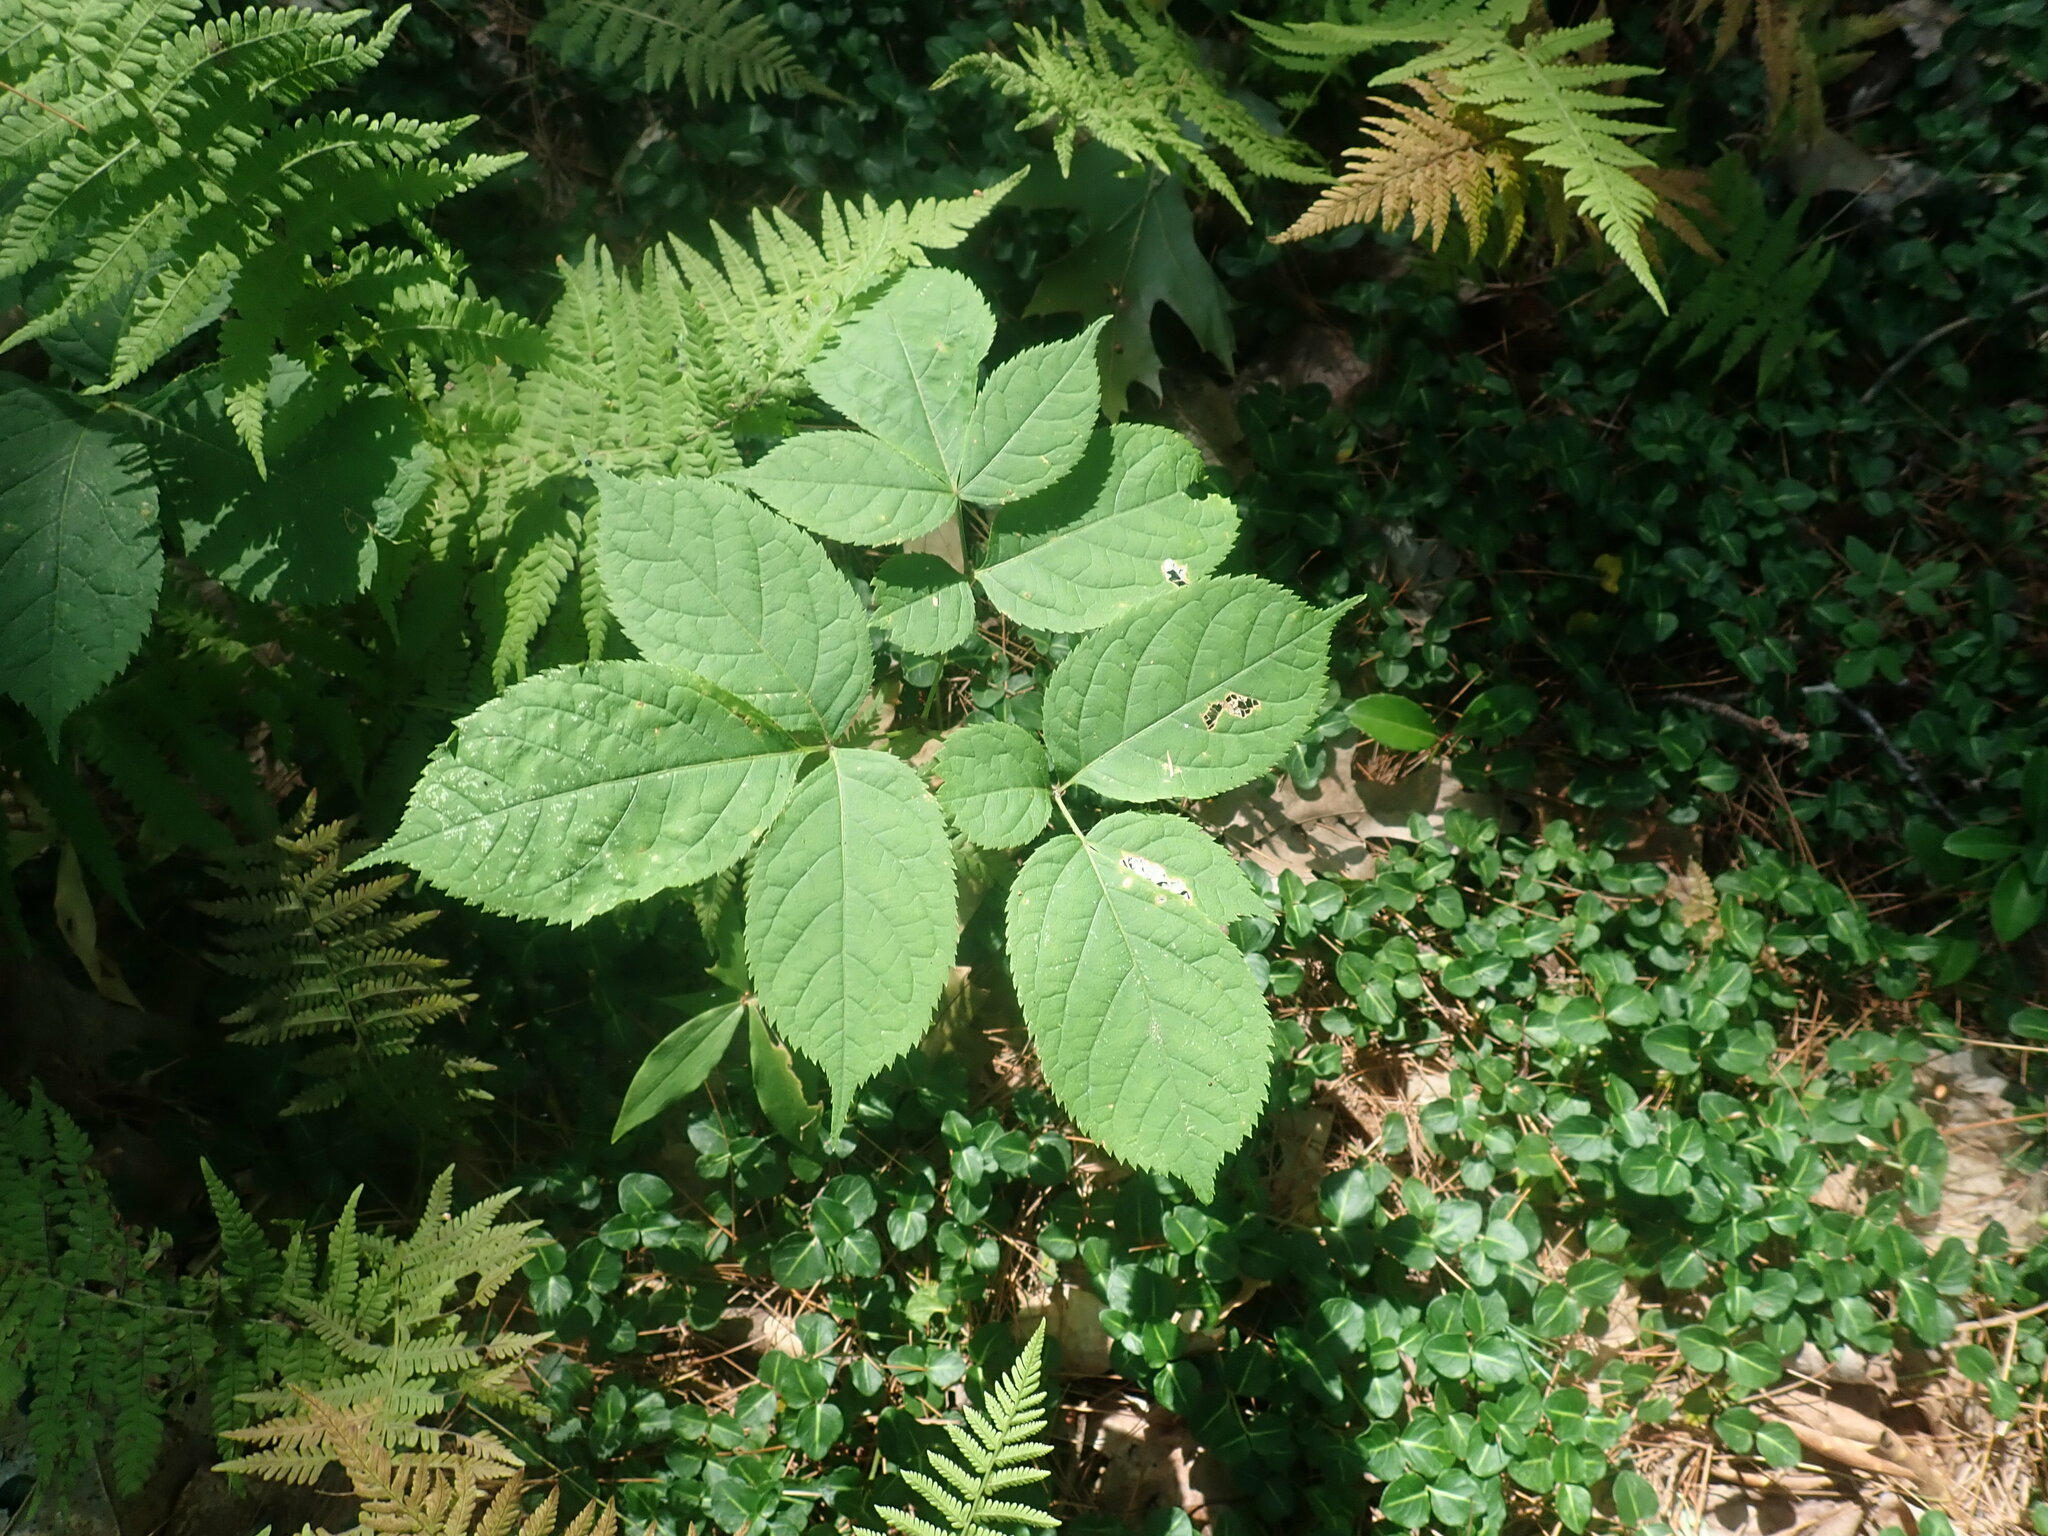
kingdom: Plantae
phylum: Tracheophyta
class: Magnoliopsida
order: Apiales
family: Araliaceae
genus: Aralia
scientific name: Aralia nudicaulis
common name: Wild sarsaparilla
